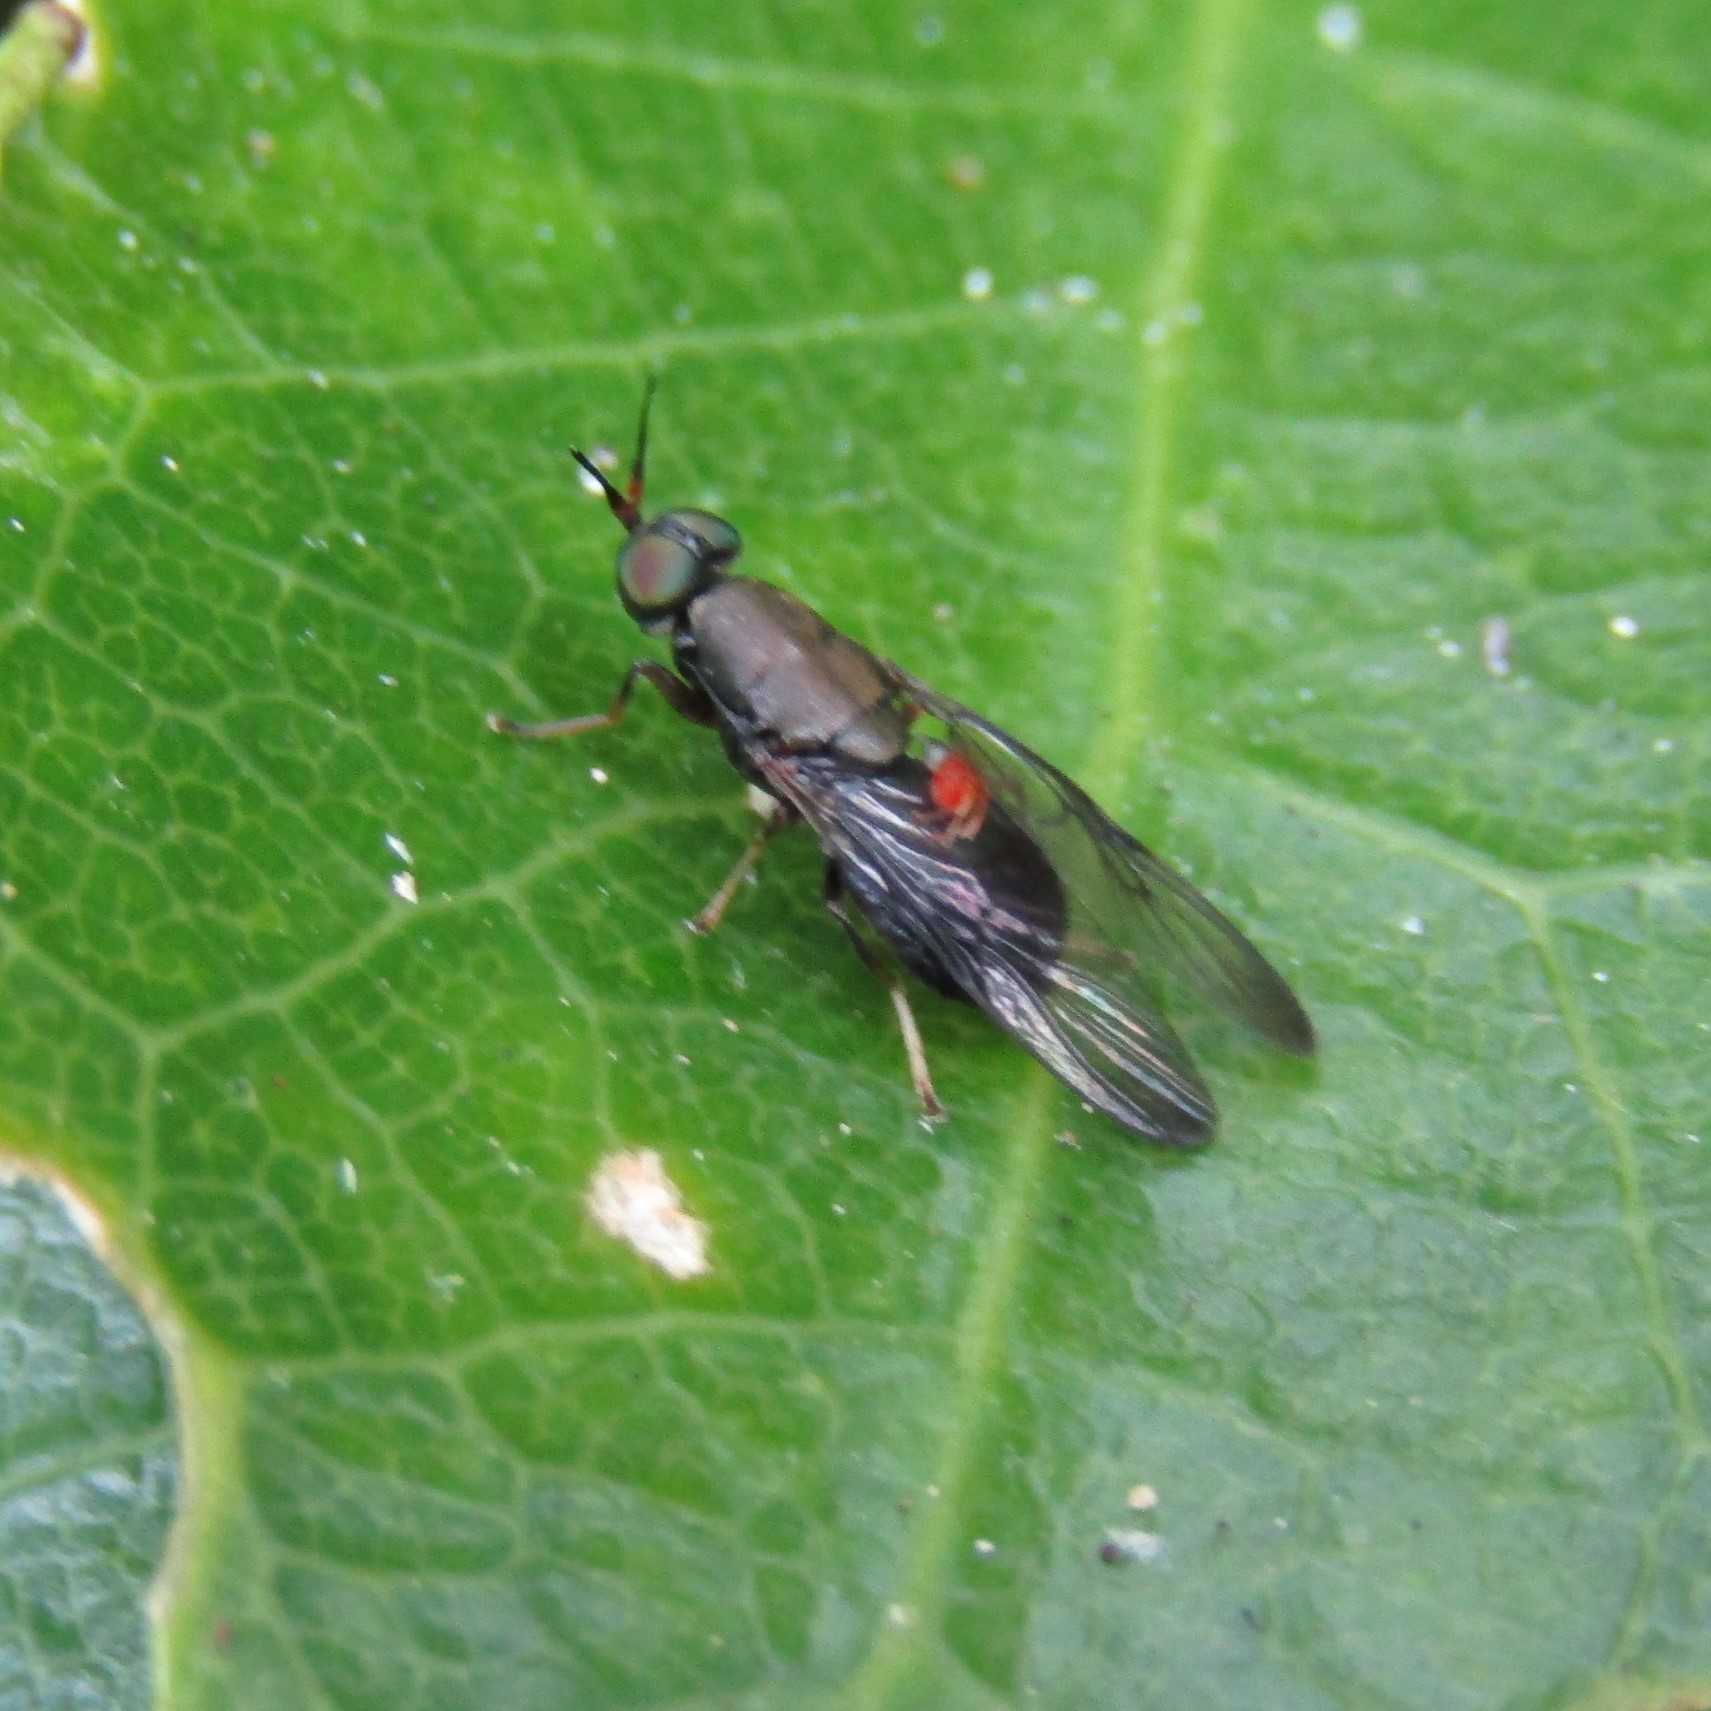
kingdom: Animalia
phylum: Arthropoda
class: Insecta
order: Diptera
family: Stratiomyidae
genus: Dysbiota
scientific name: Dysbiota peregrina
